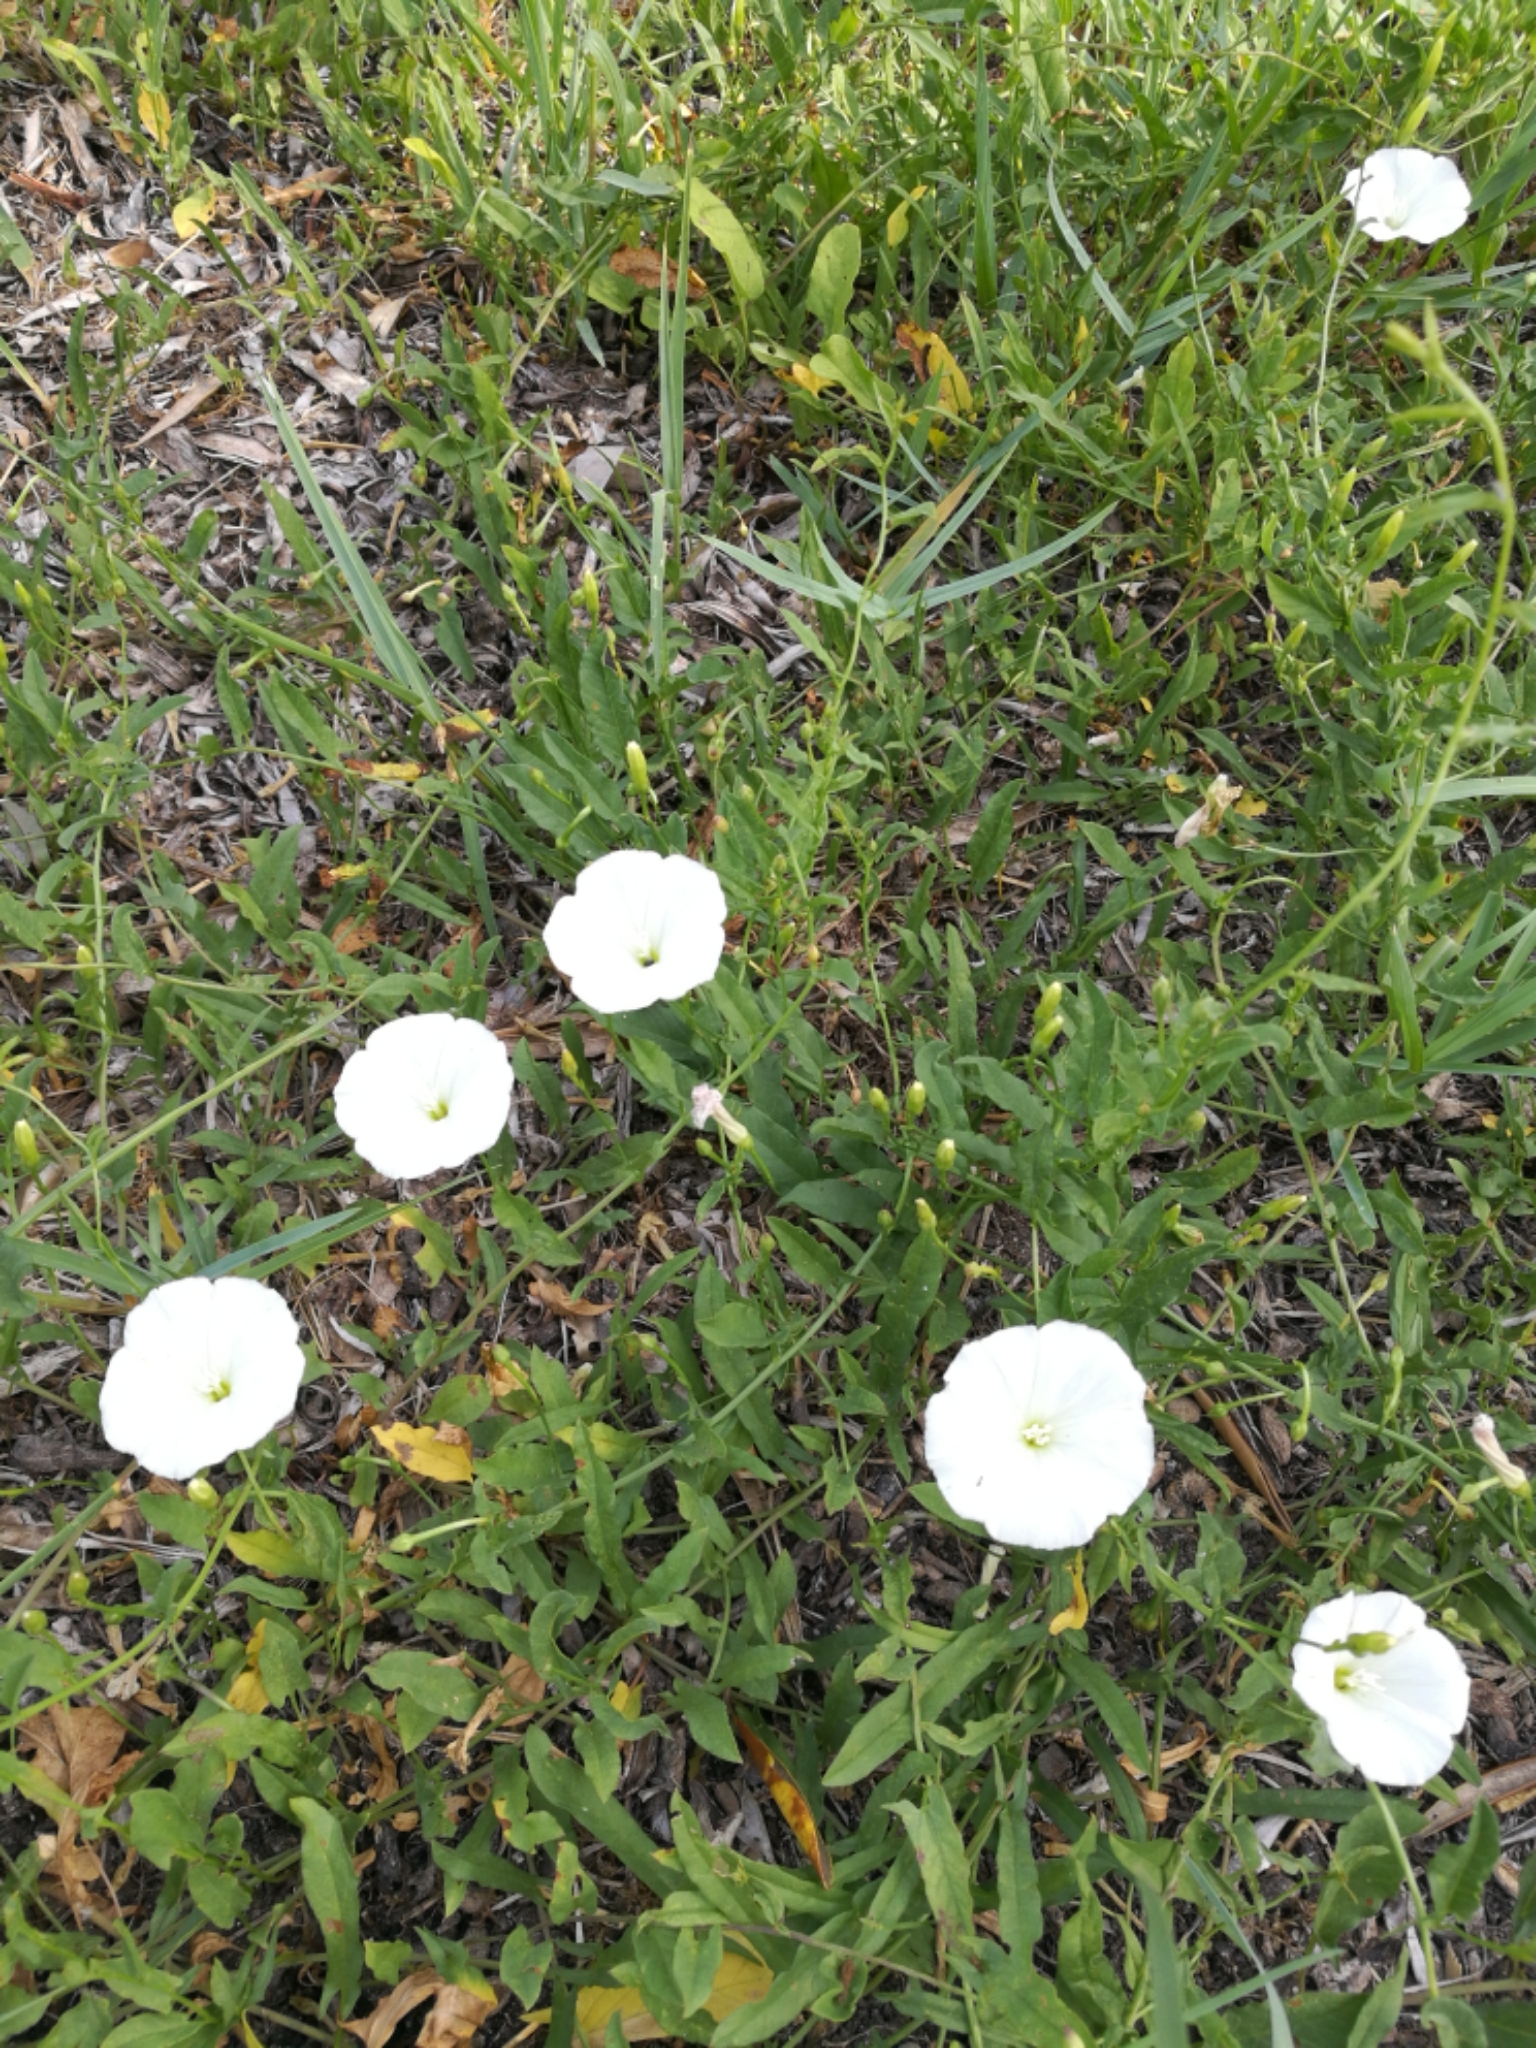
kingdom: Plantae
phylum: Tracheophyta
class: Magnoliopsida
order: Solanales
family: Convolvulaceae
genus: Convolvulus
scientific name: Convolvulus arvensis
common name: Field bindweed
